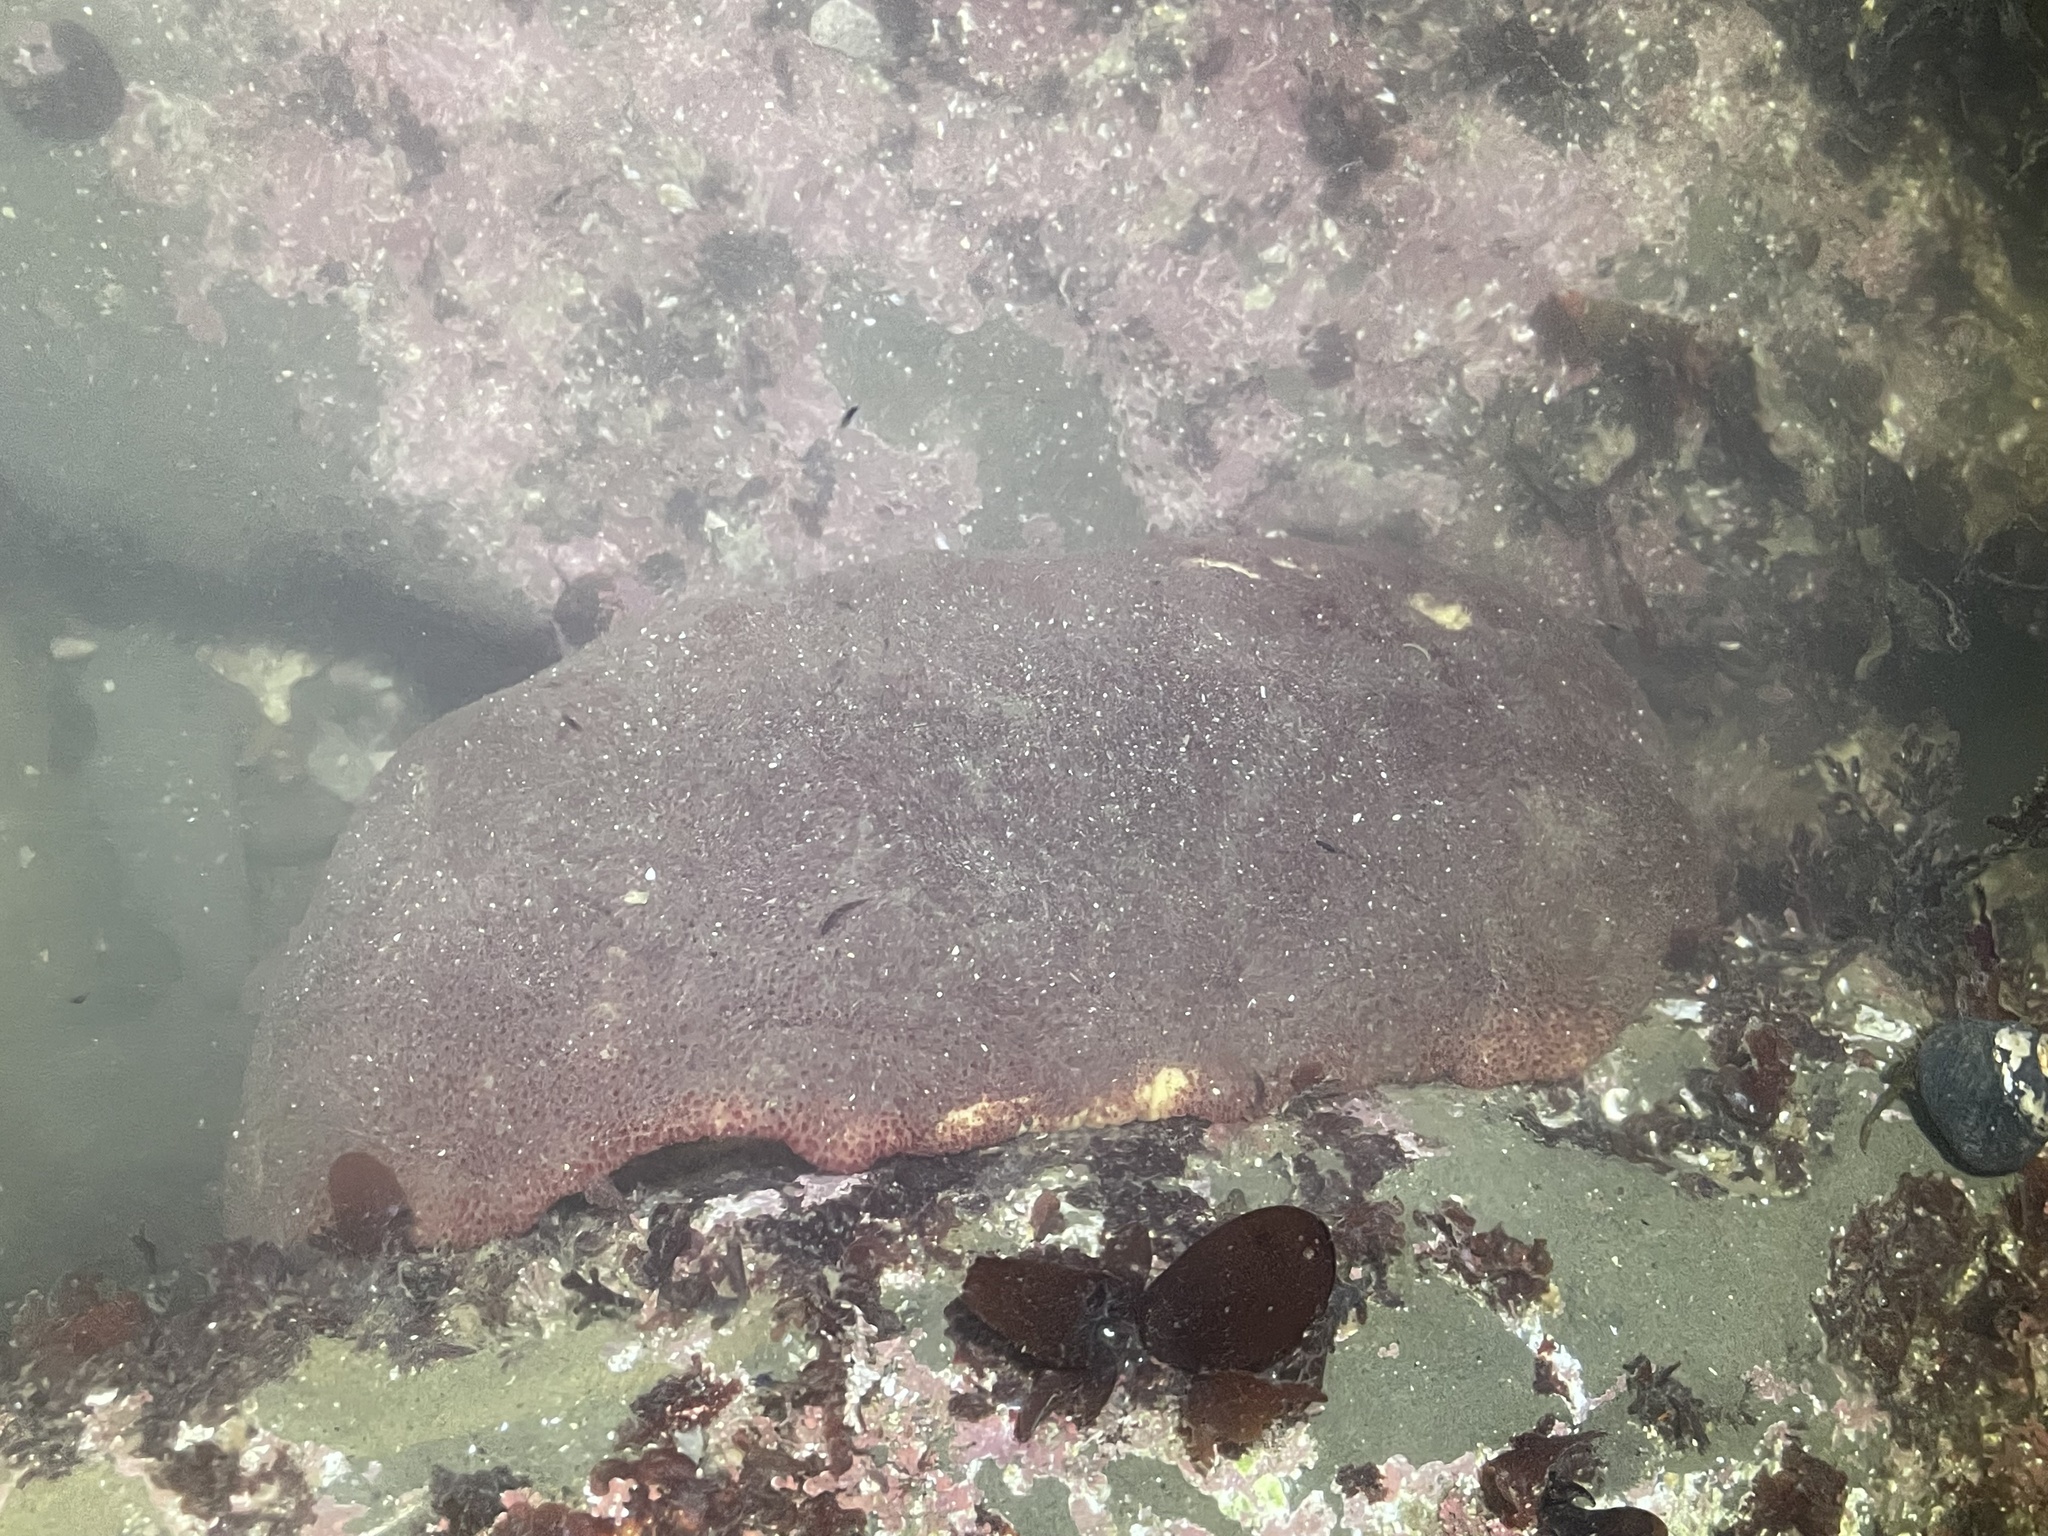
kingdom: Animalia
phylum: Mollusca
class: Polyplacophora
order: Chitonida
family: Acanthochitonidae
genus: Cryptochiton
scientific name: Cryptochiton stelleri
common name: Giant pacific chiton
